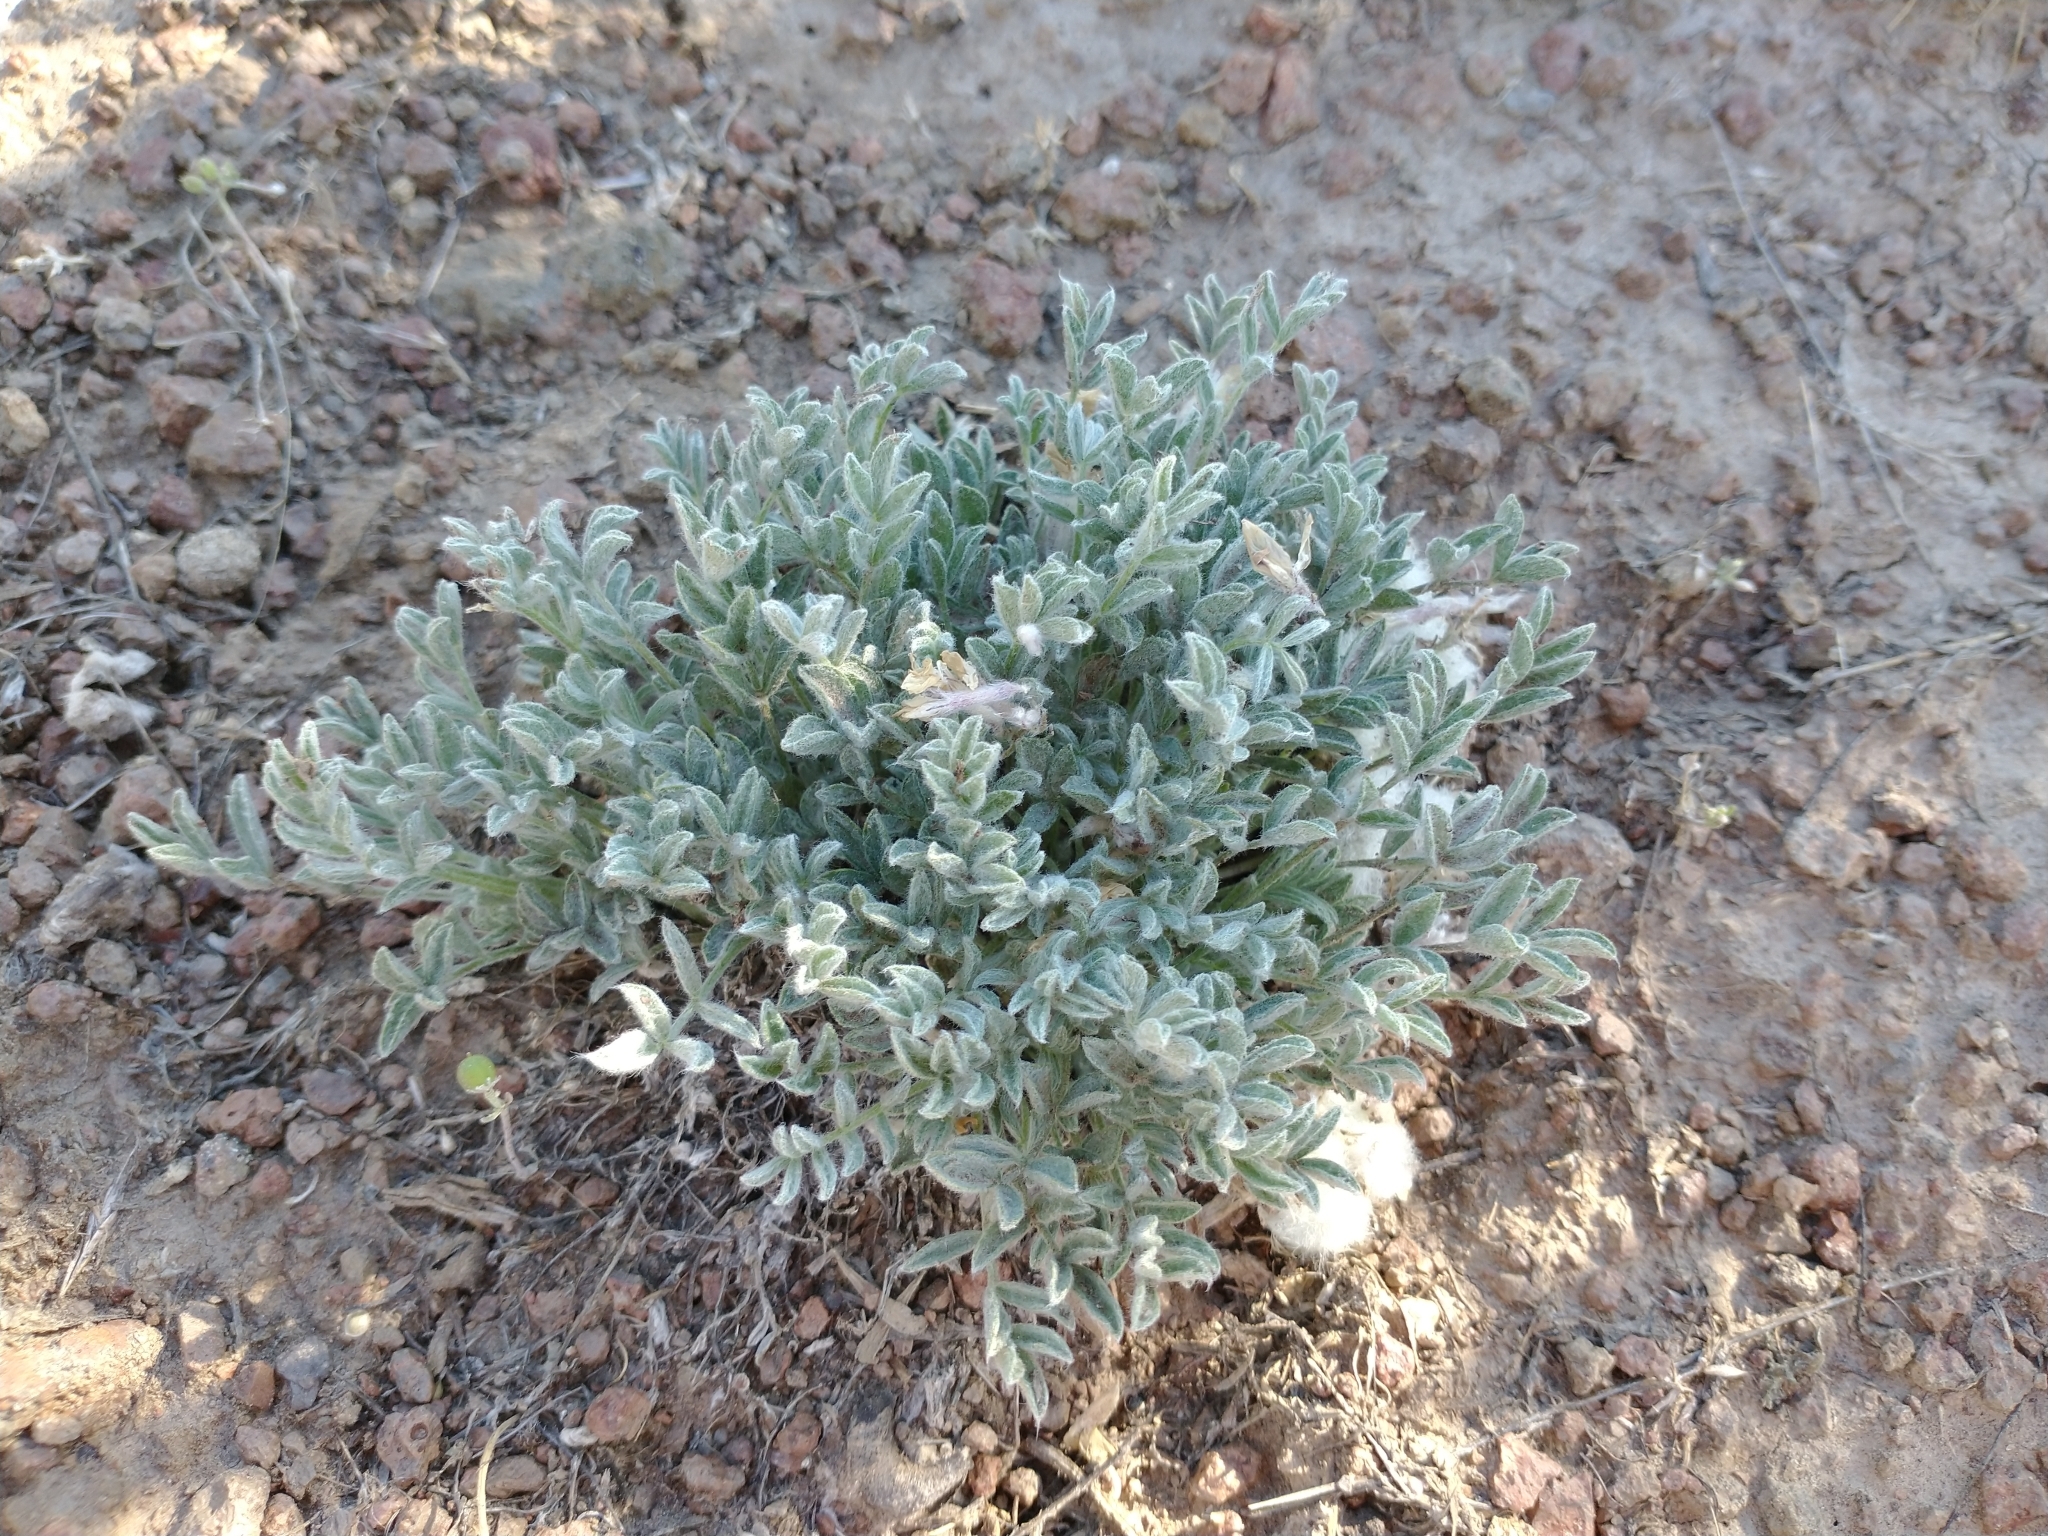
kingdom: Plantae
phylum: Tracheophyta
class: Magnoliopsida
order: Fabales
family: Fabaceae
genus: Astragalus
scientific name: Astragalus purshii
